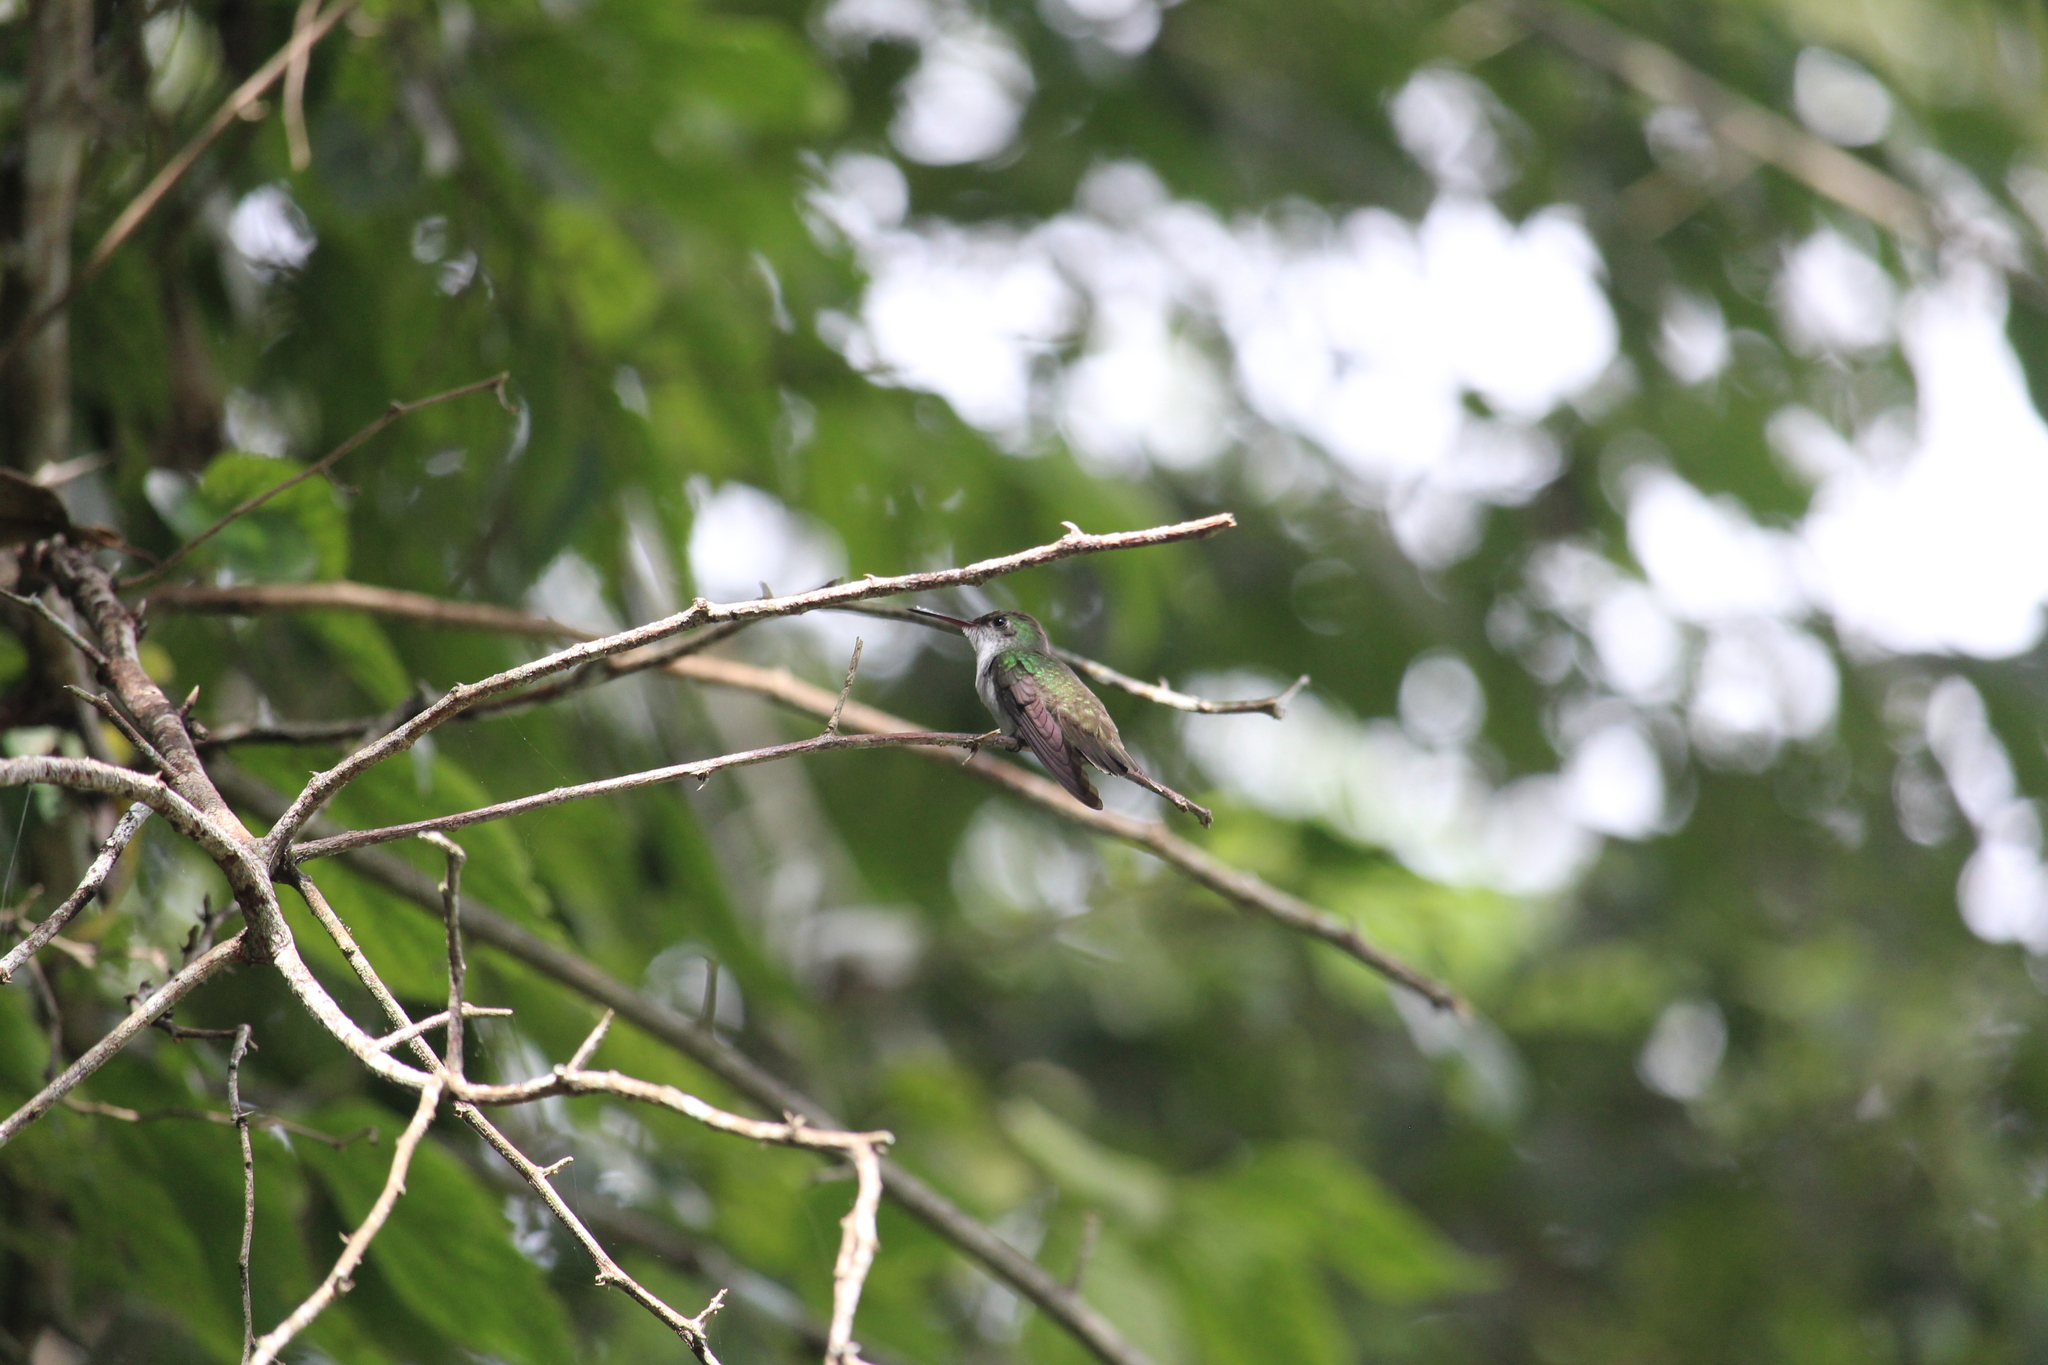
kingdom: Animalia
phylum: Chordata
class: Aves
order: Apodiformes
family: Trochilidae
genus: Chlorestes
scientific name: Chlorestes candida
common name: White-bellied emerald
